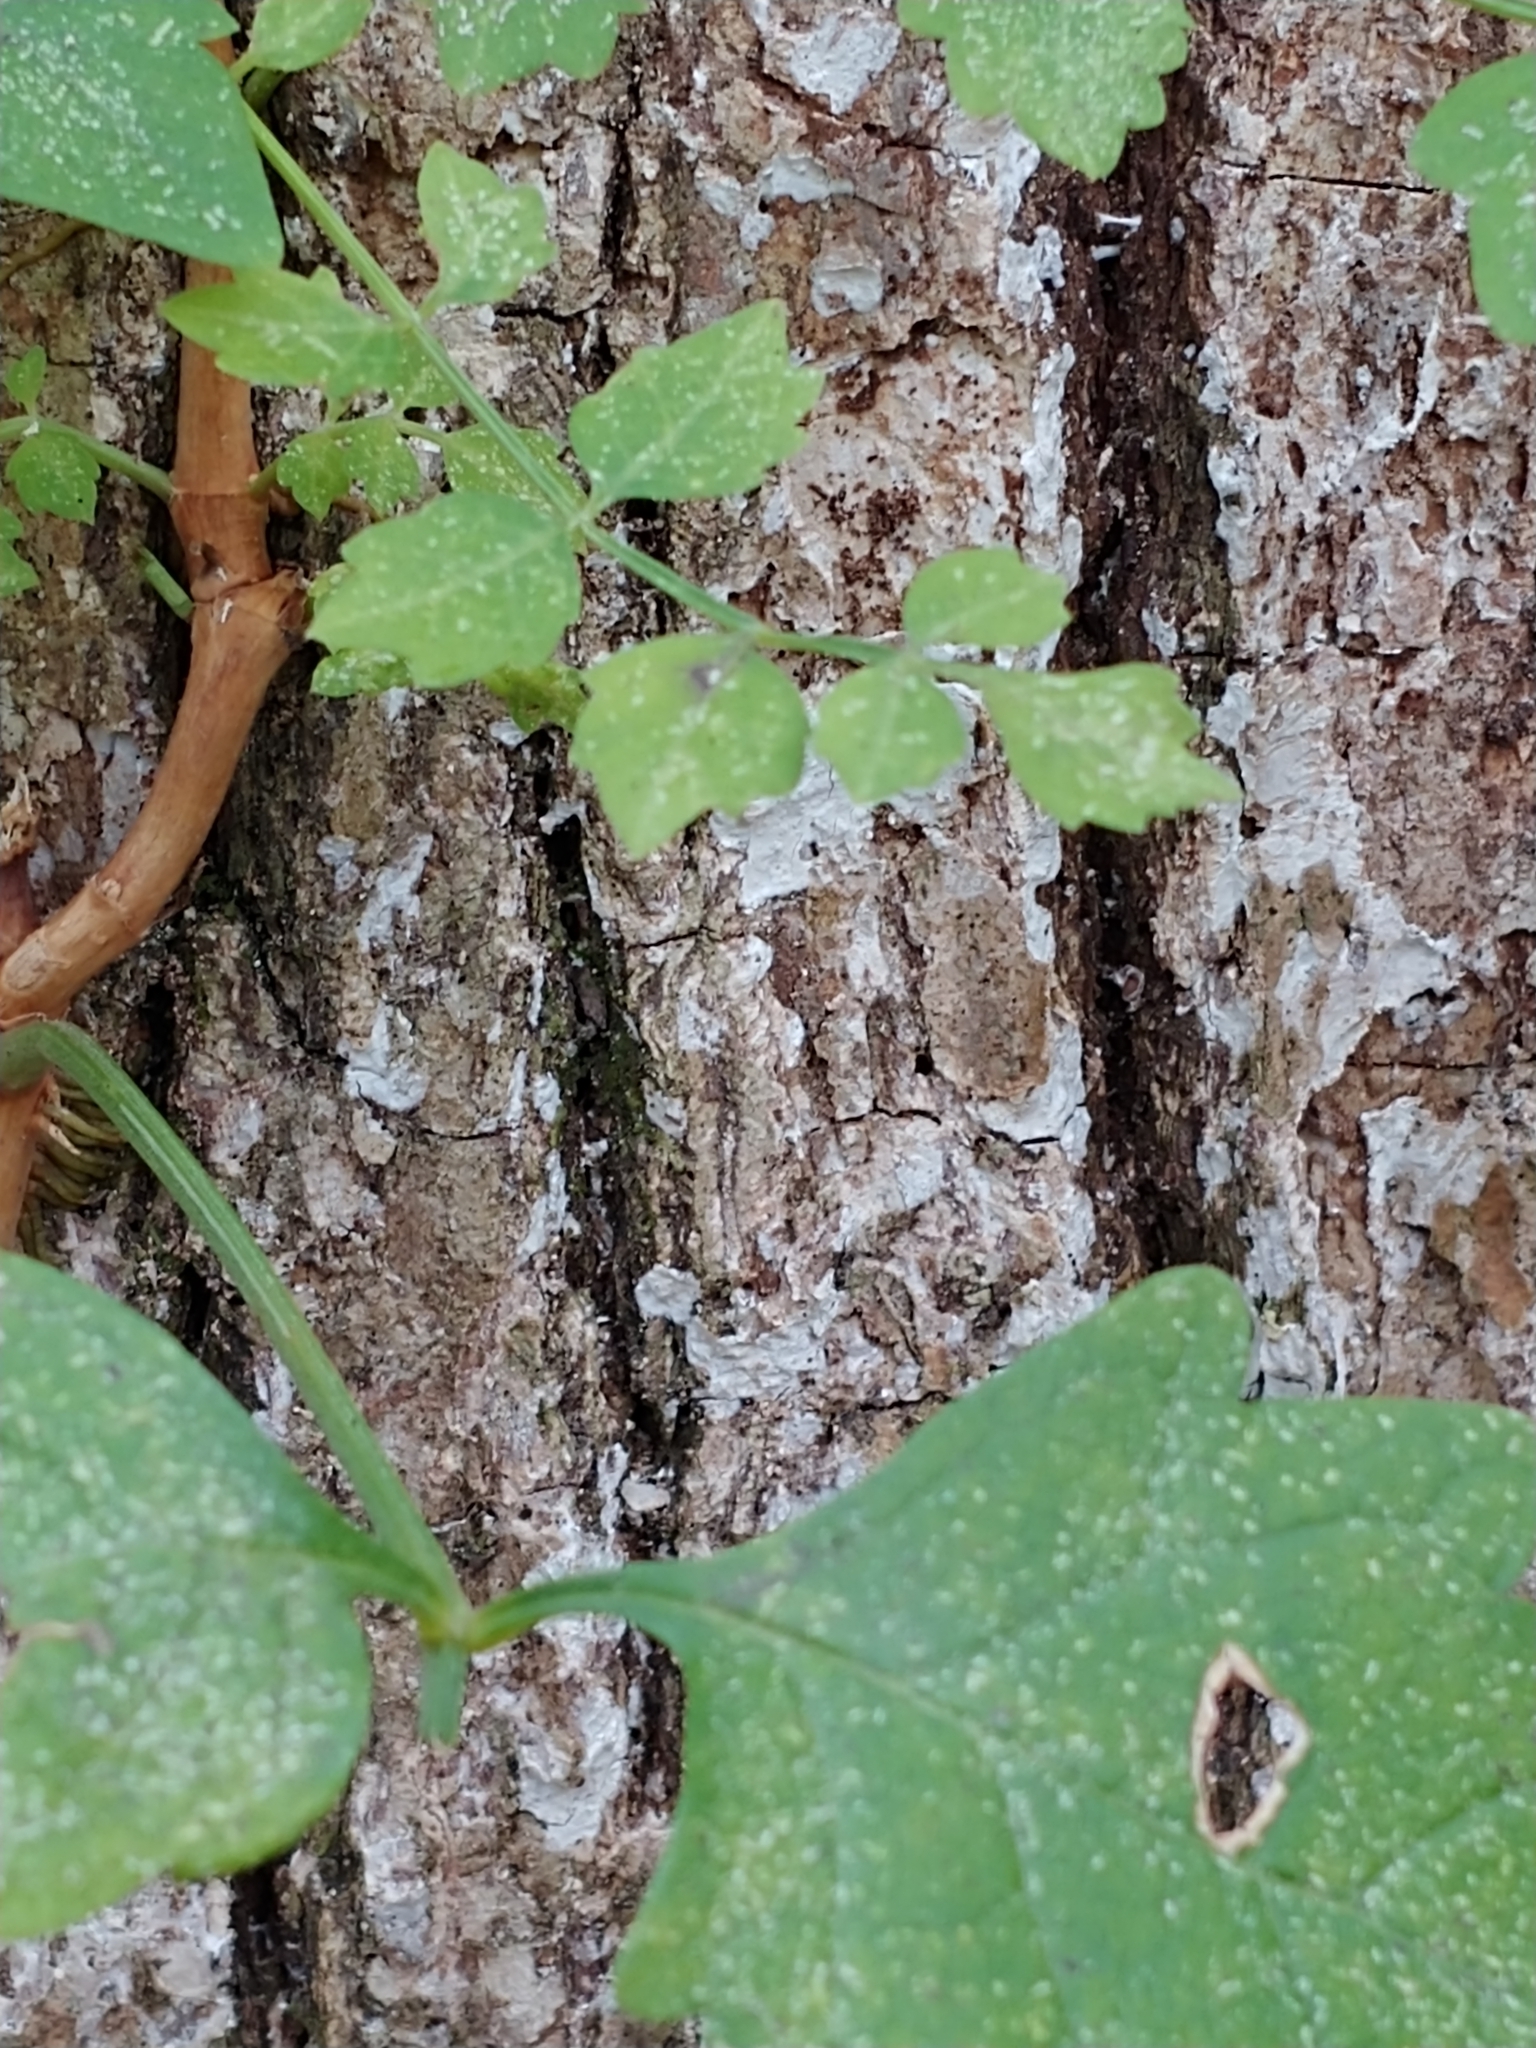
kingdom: Plantae
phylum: Tracheophyta
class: Magnoliopsida
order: Lamiales
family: Bignoniaceae
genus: Campsis
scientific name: Campsis radicans
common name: Trumpet-creeper
